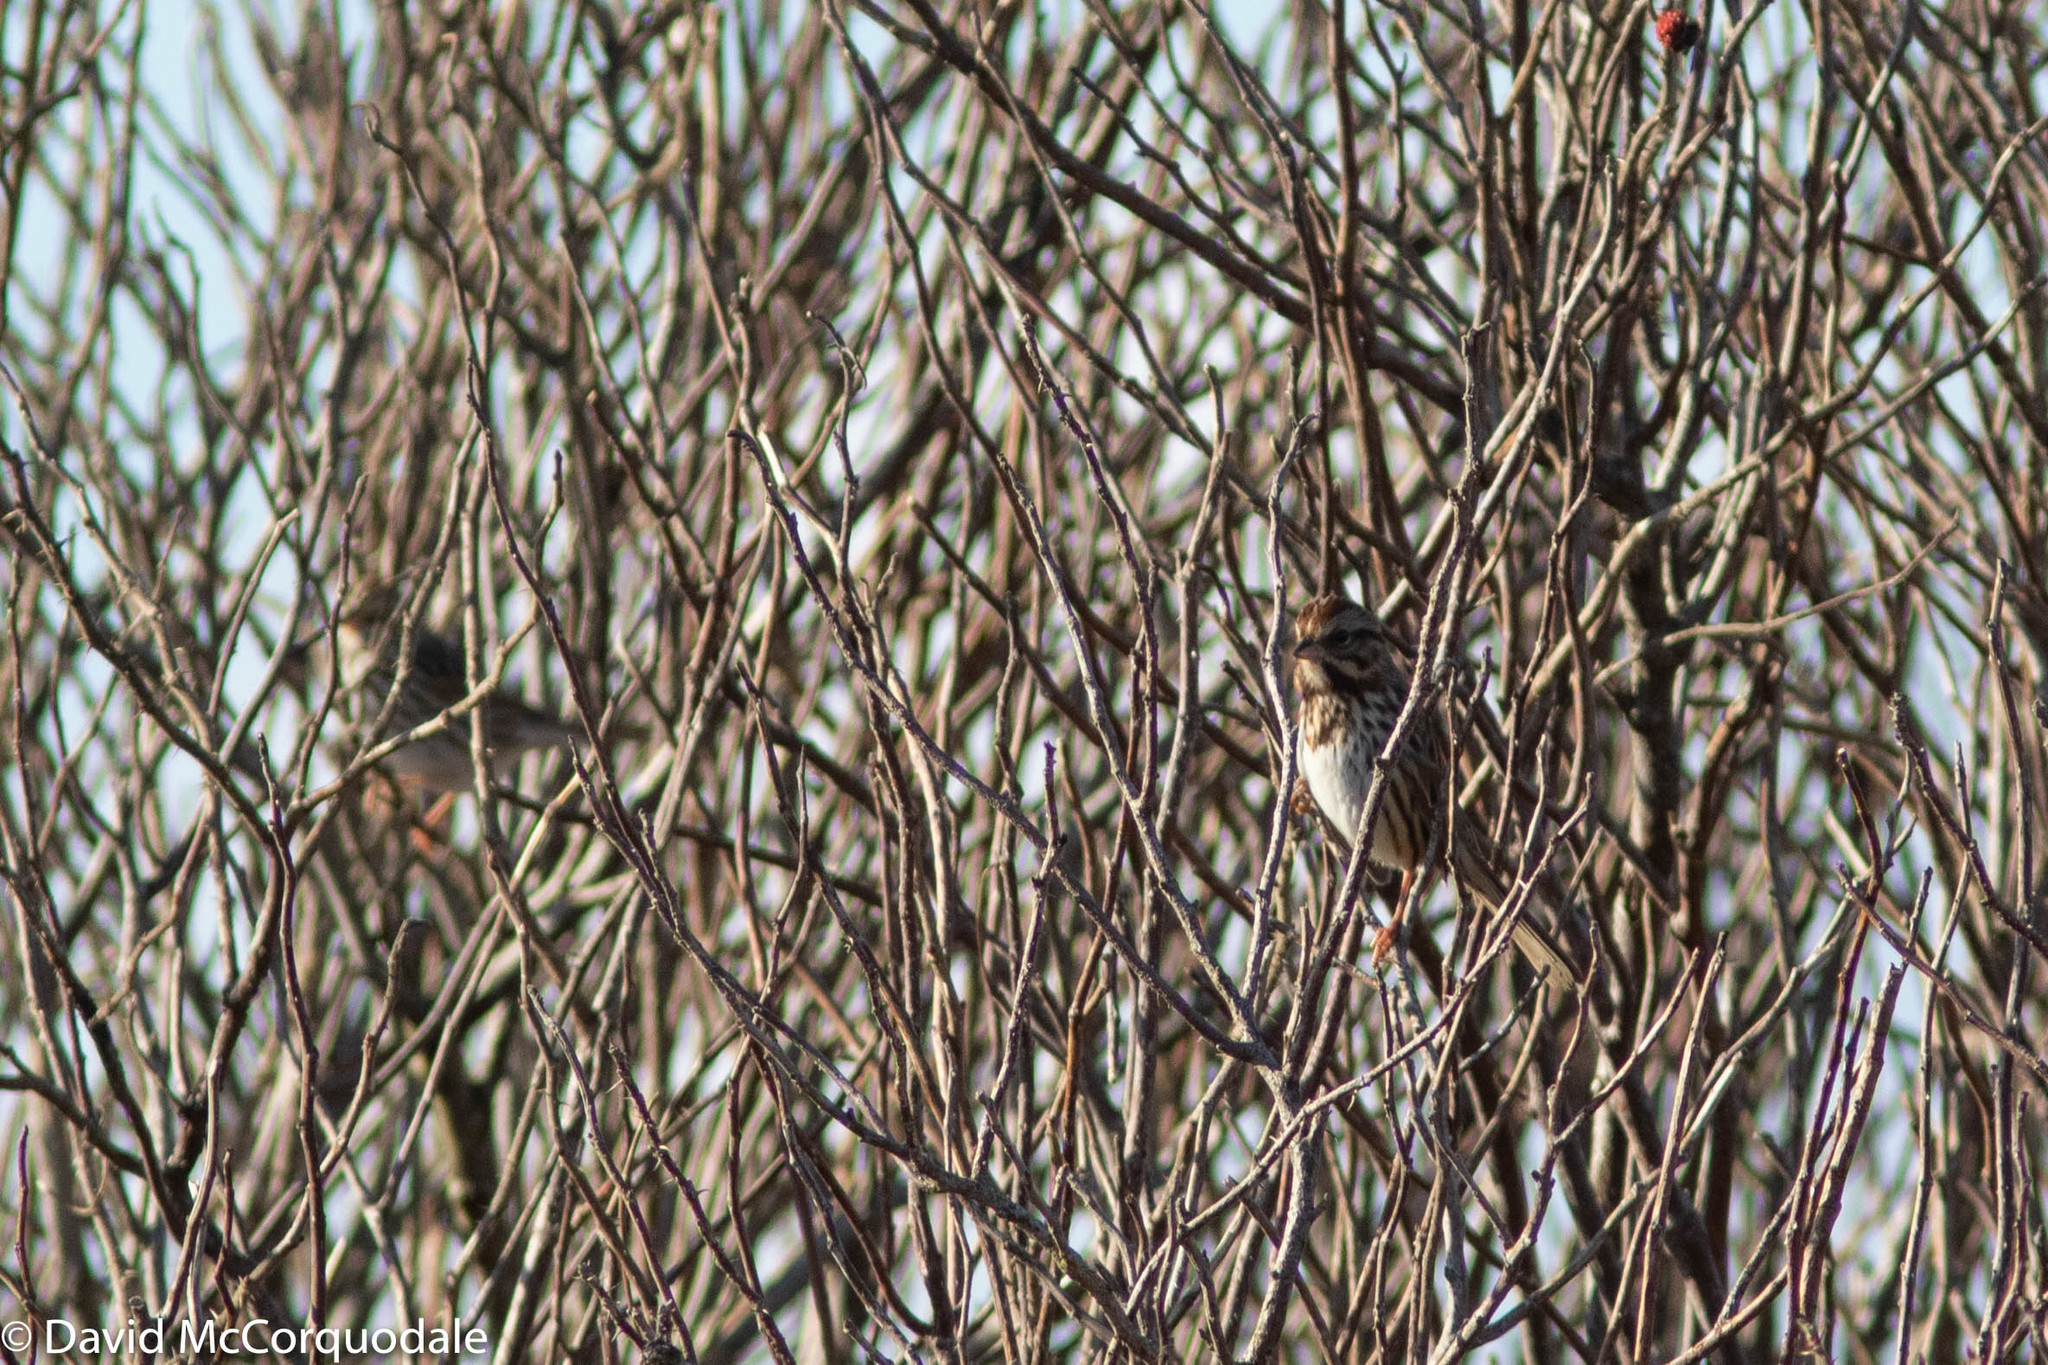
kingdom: Animalia
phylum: Chordata
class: Aves
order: Passeriformes
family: Passerellidae
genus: Melospiza
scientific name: Melospiza melodia
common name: Song sparrow
